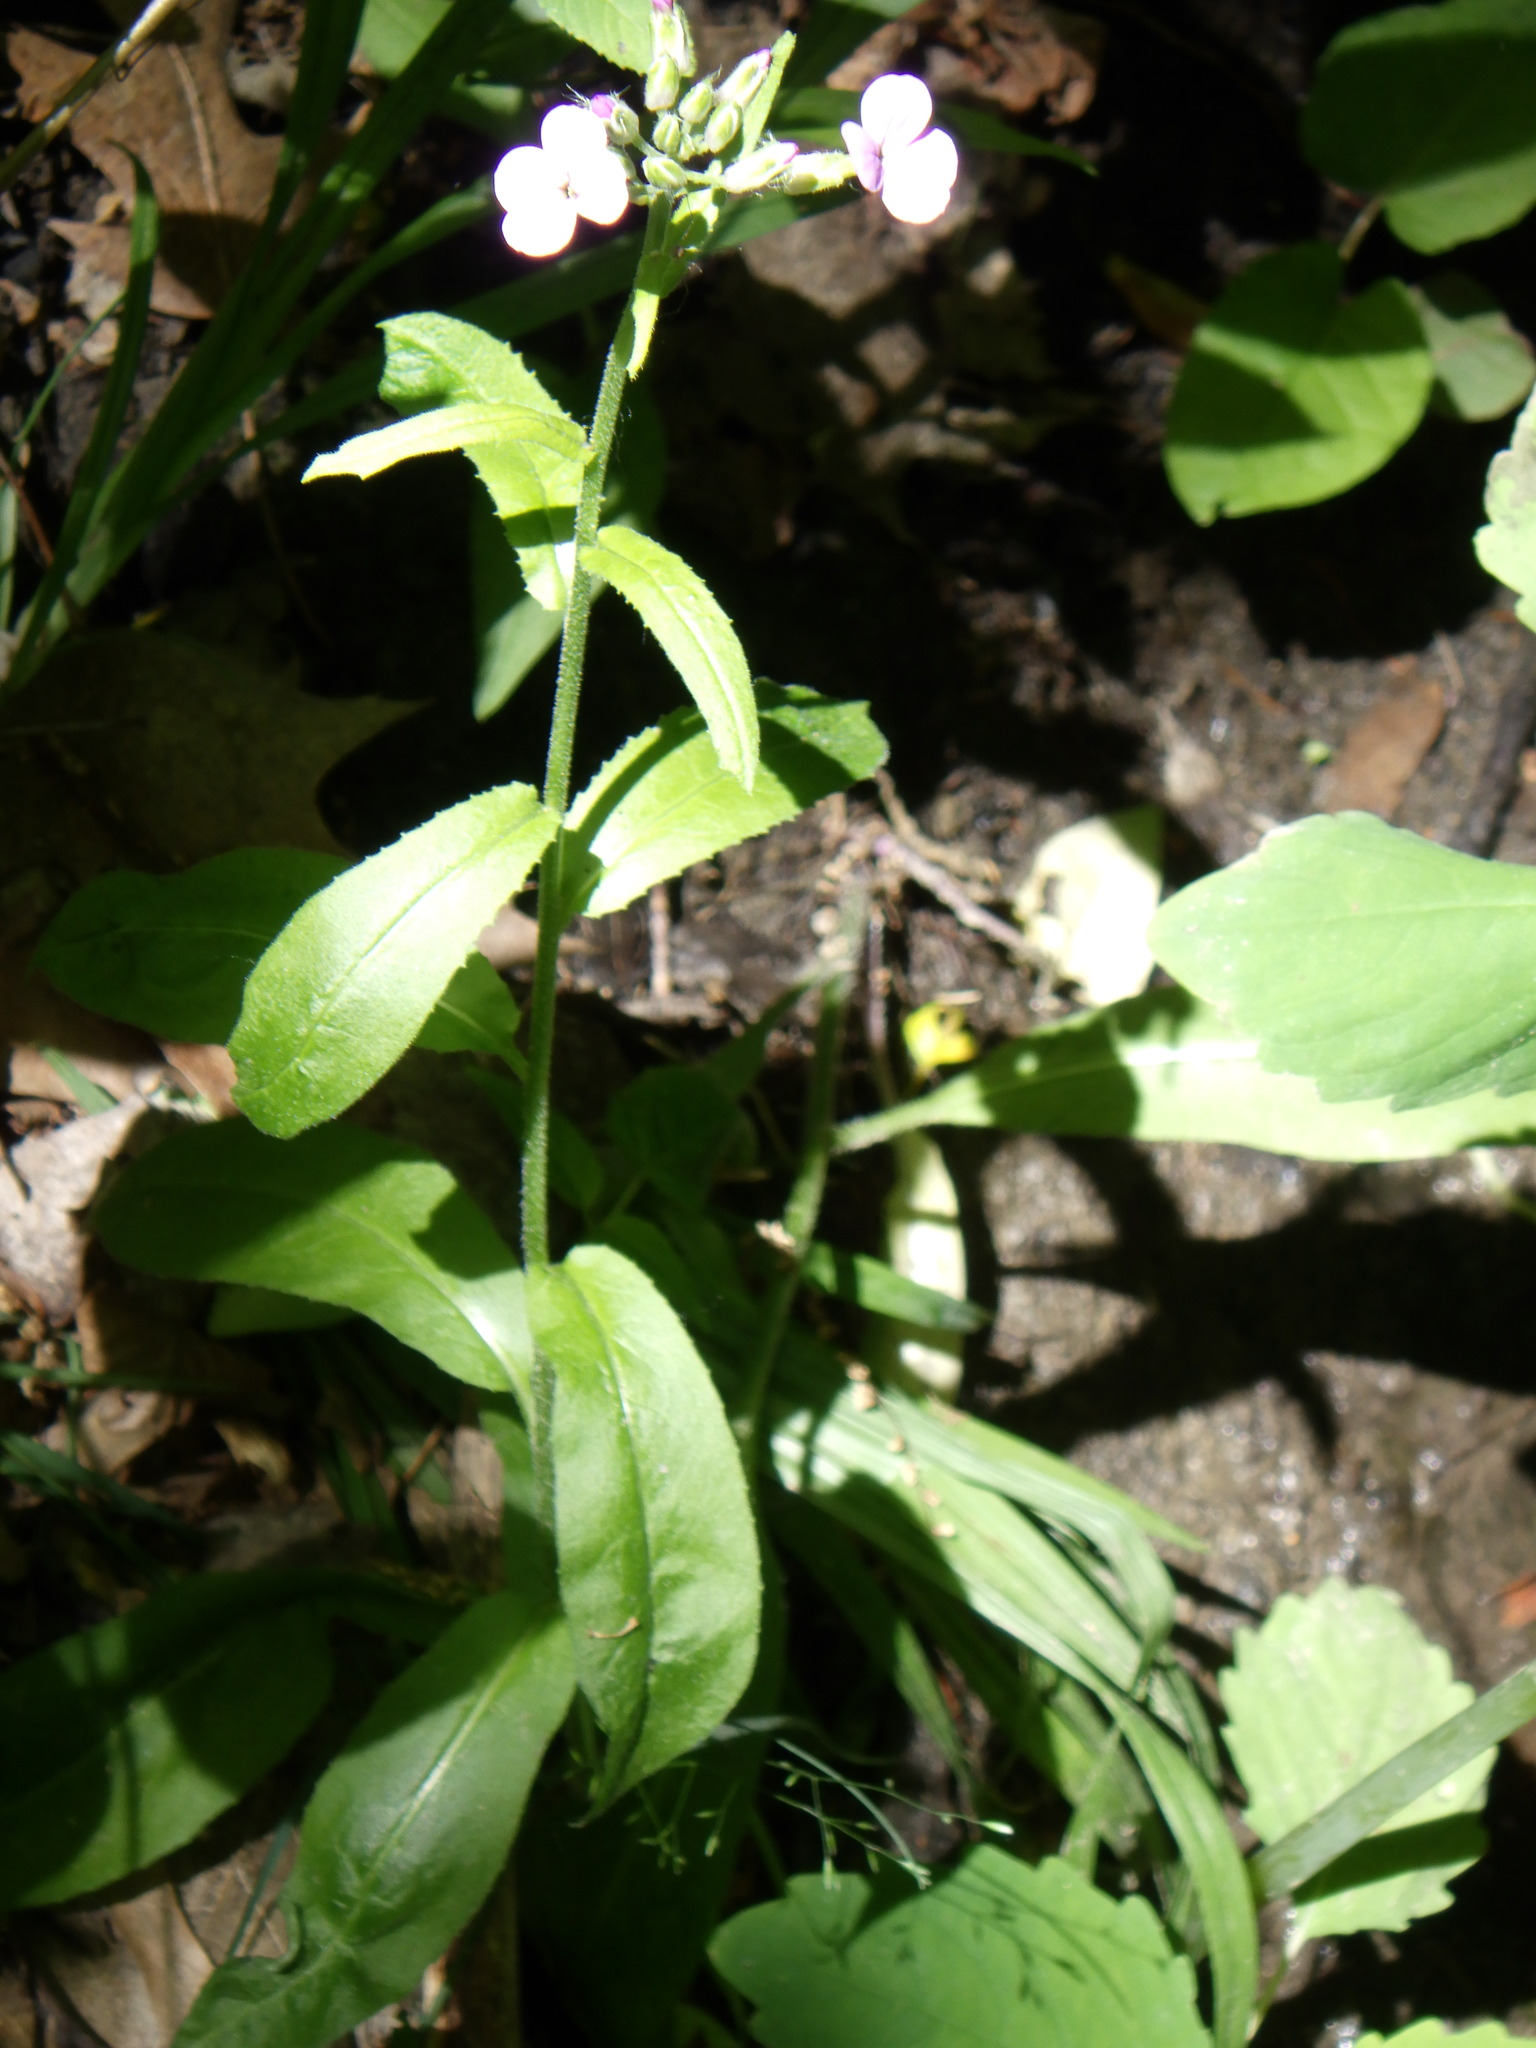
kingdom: Plantae
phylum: Tracheophyta
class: Magnoliopsida
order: Brassicales
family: Brassicaceae
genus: Hesperis
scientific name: Hesperis matronalis
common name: Dame's-violet
